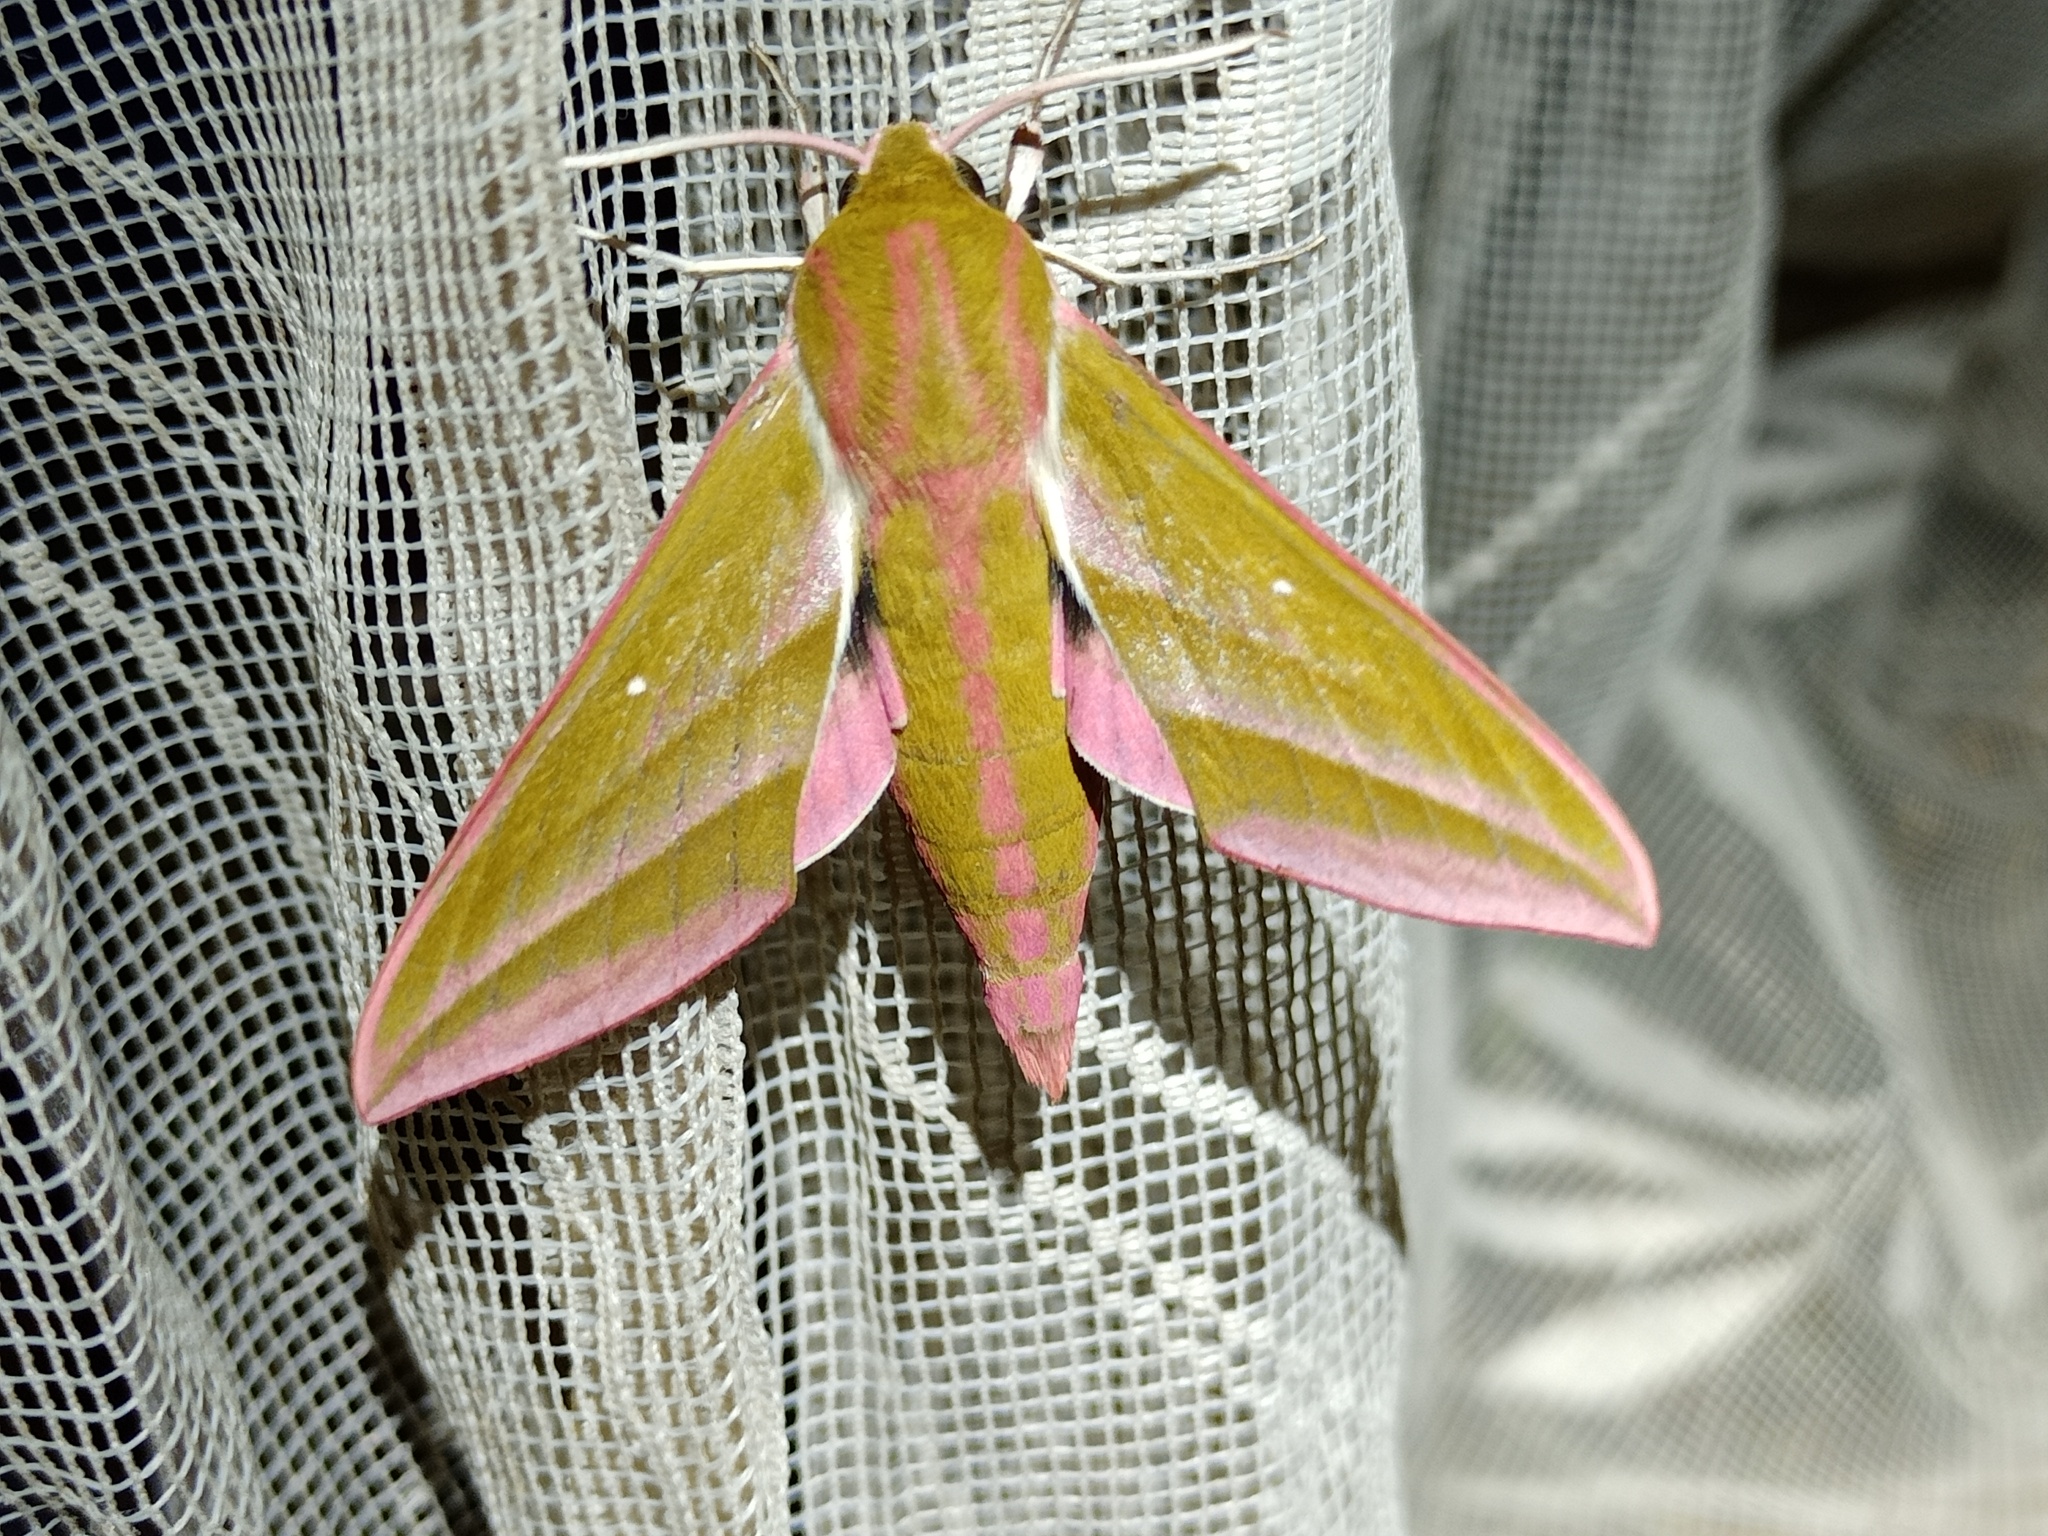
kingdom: Animalia
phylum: Arthropoda
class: Insecta
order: Lepidoptera
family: Sphingidae
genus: Deilephila
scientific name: Deilephila elpenor
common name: Elephant hawk-moth
